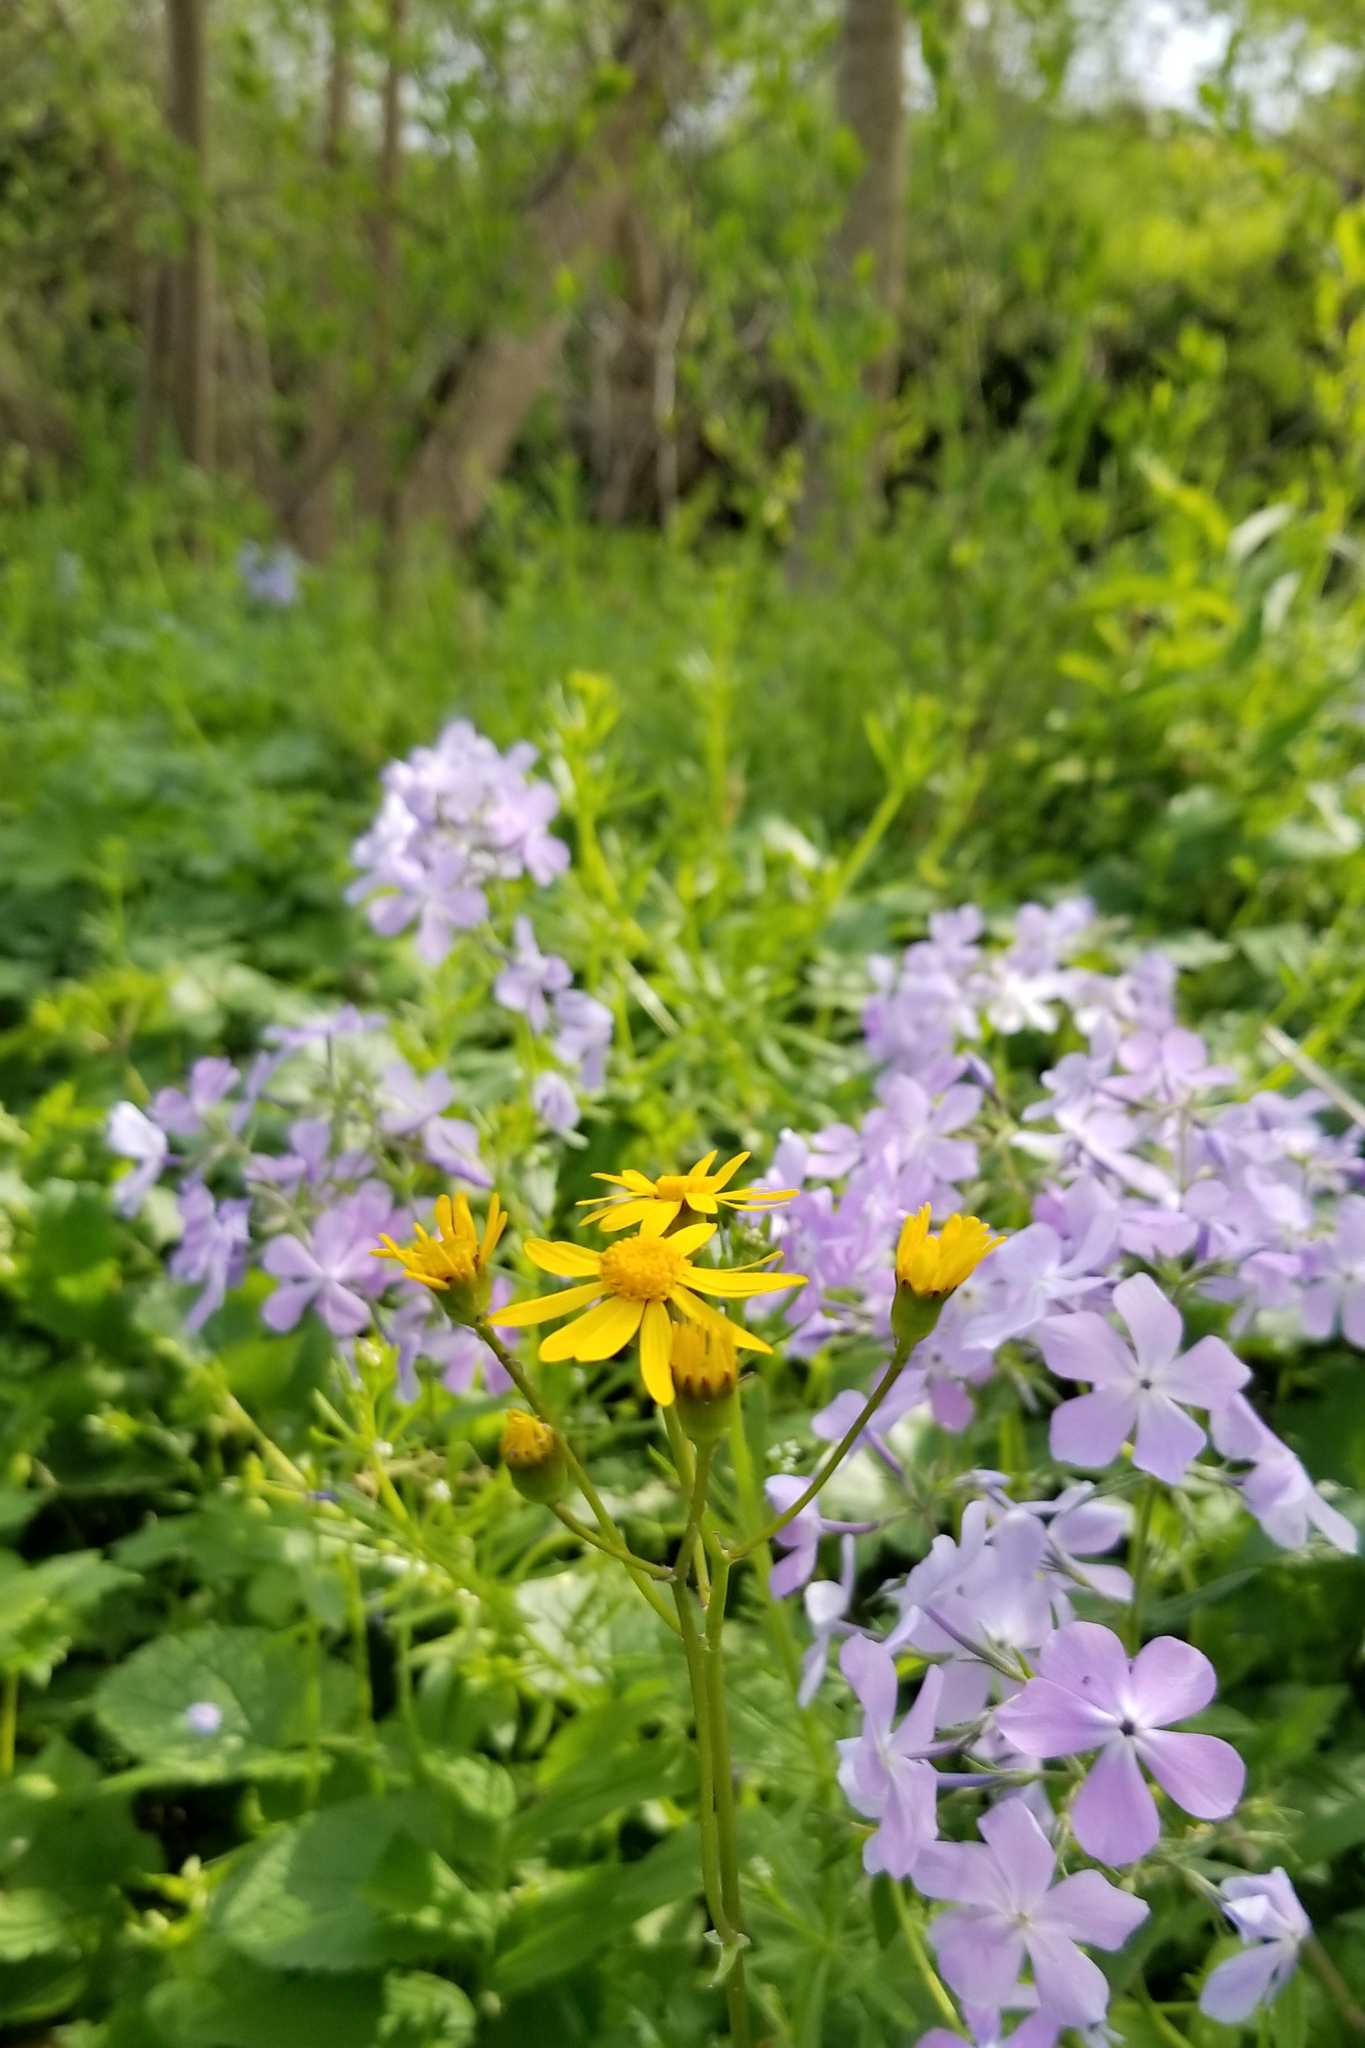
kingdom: Plantae
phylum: Tracheophyta
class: Magnoliopsida
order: Asterales
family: Asteraceae
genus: Packera
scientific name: Packera aurea
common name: Golden groundsel
